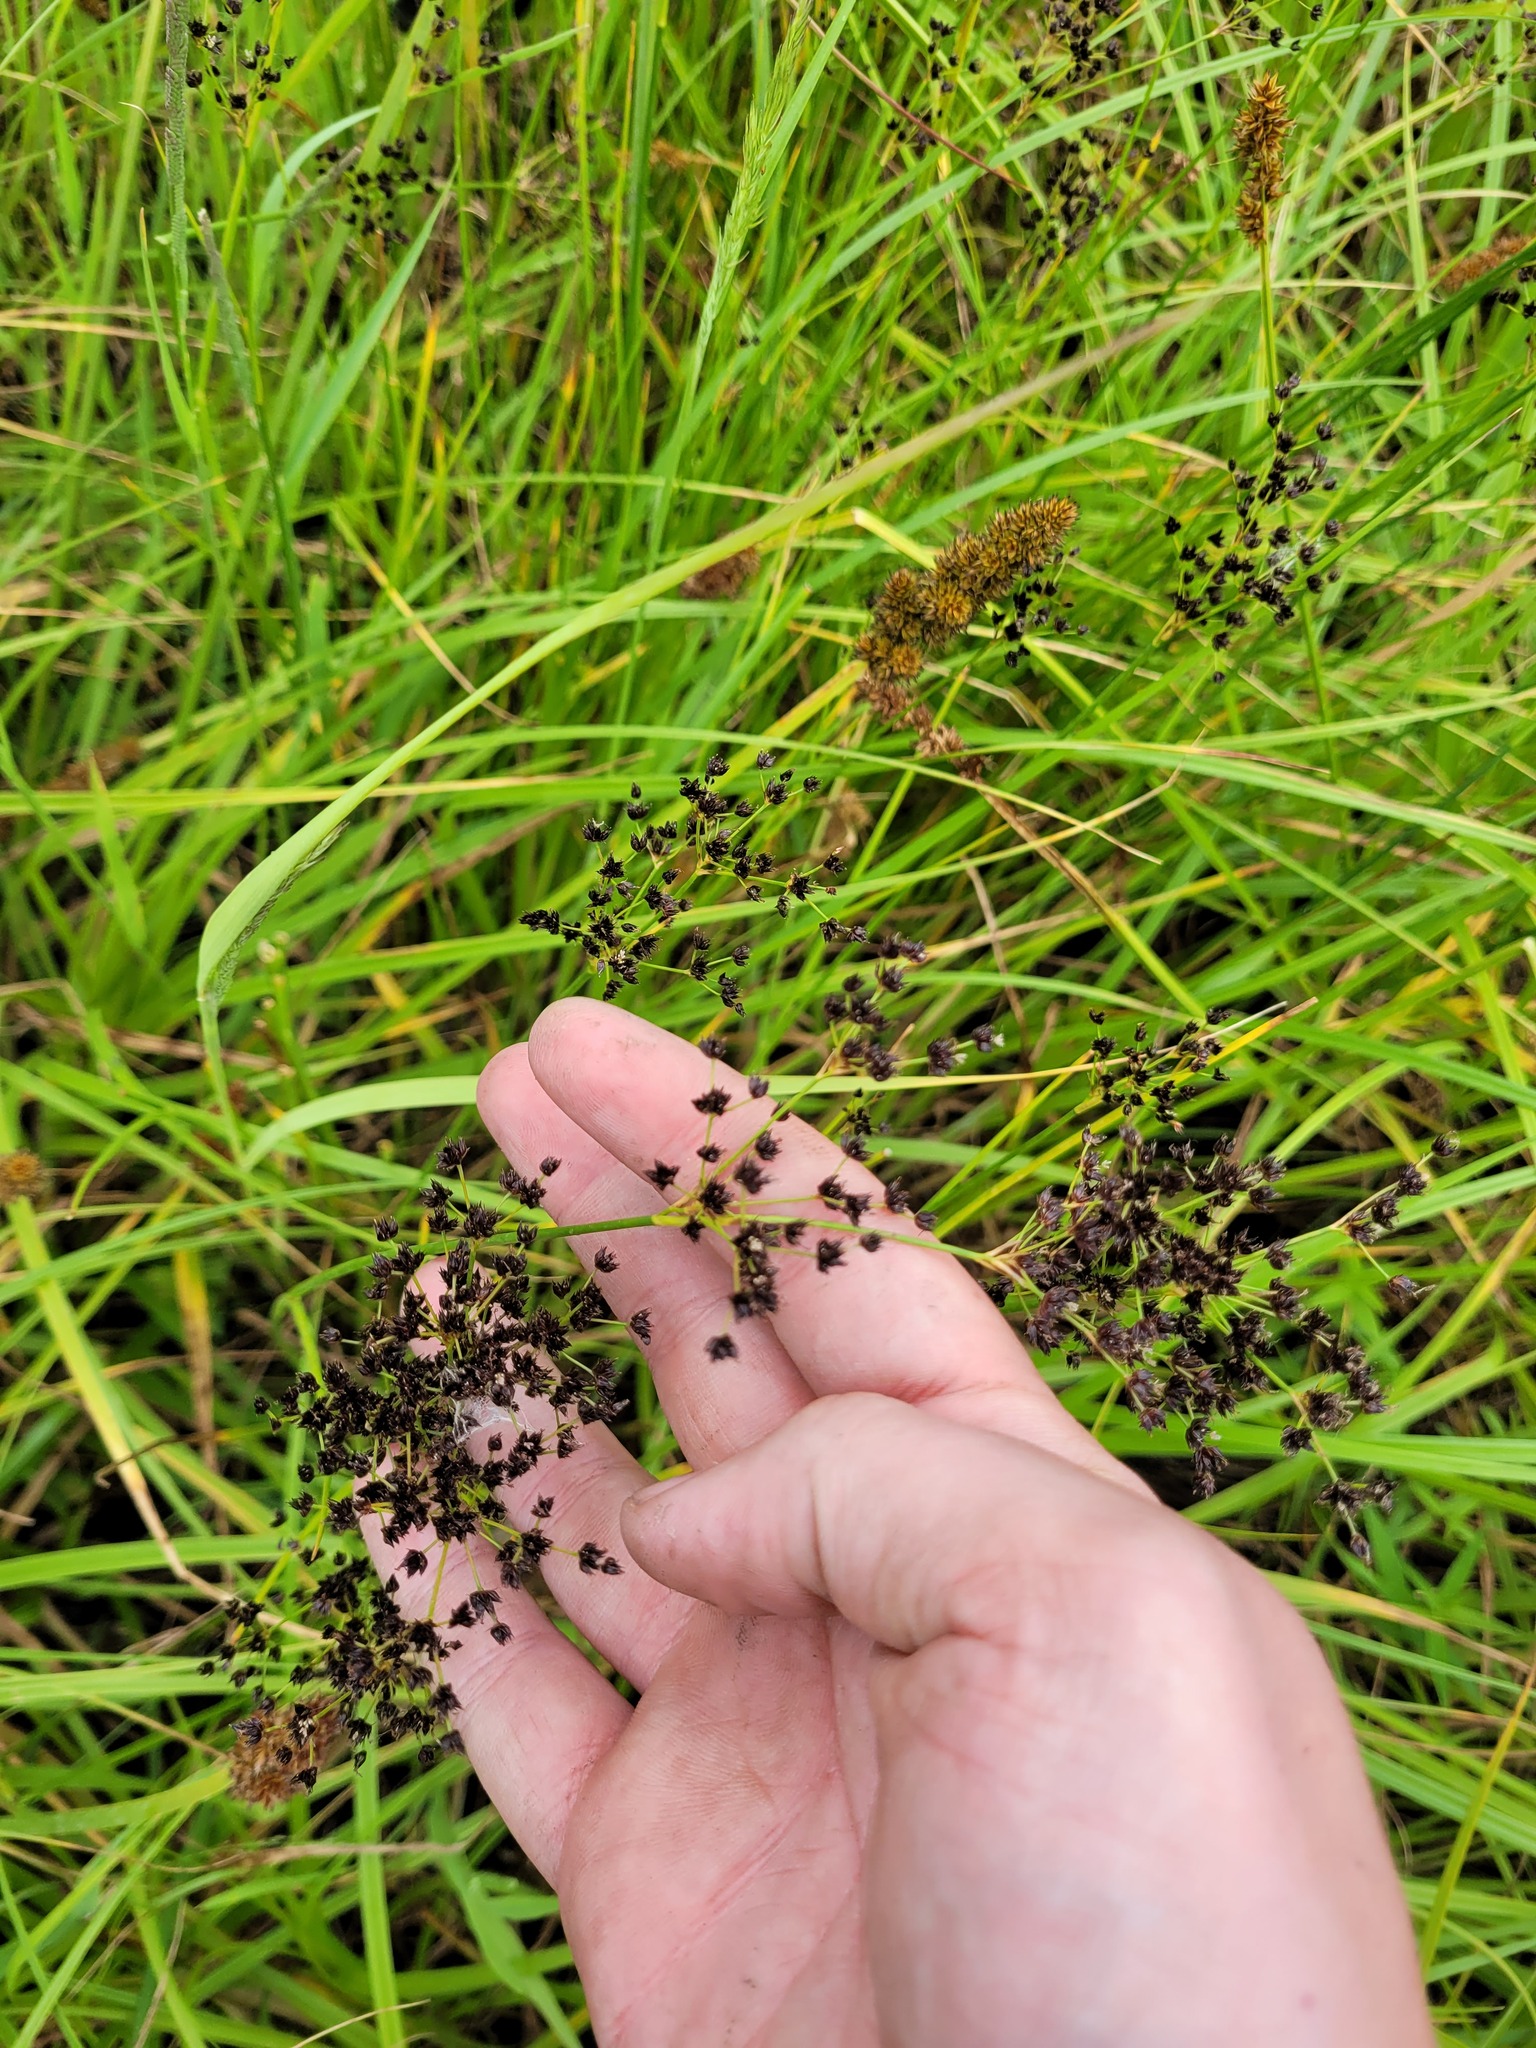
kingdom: Plantae
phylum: Tracheophyta
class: Liliopsida
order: Poales
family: Juncaceae
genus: Juncus
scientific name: Juncus atratus
